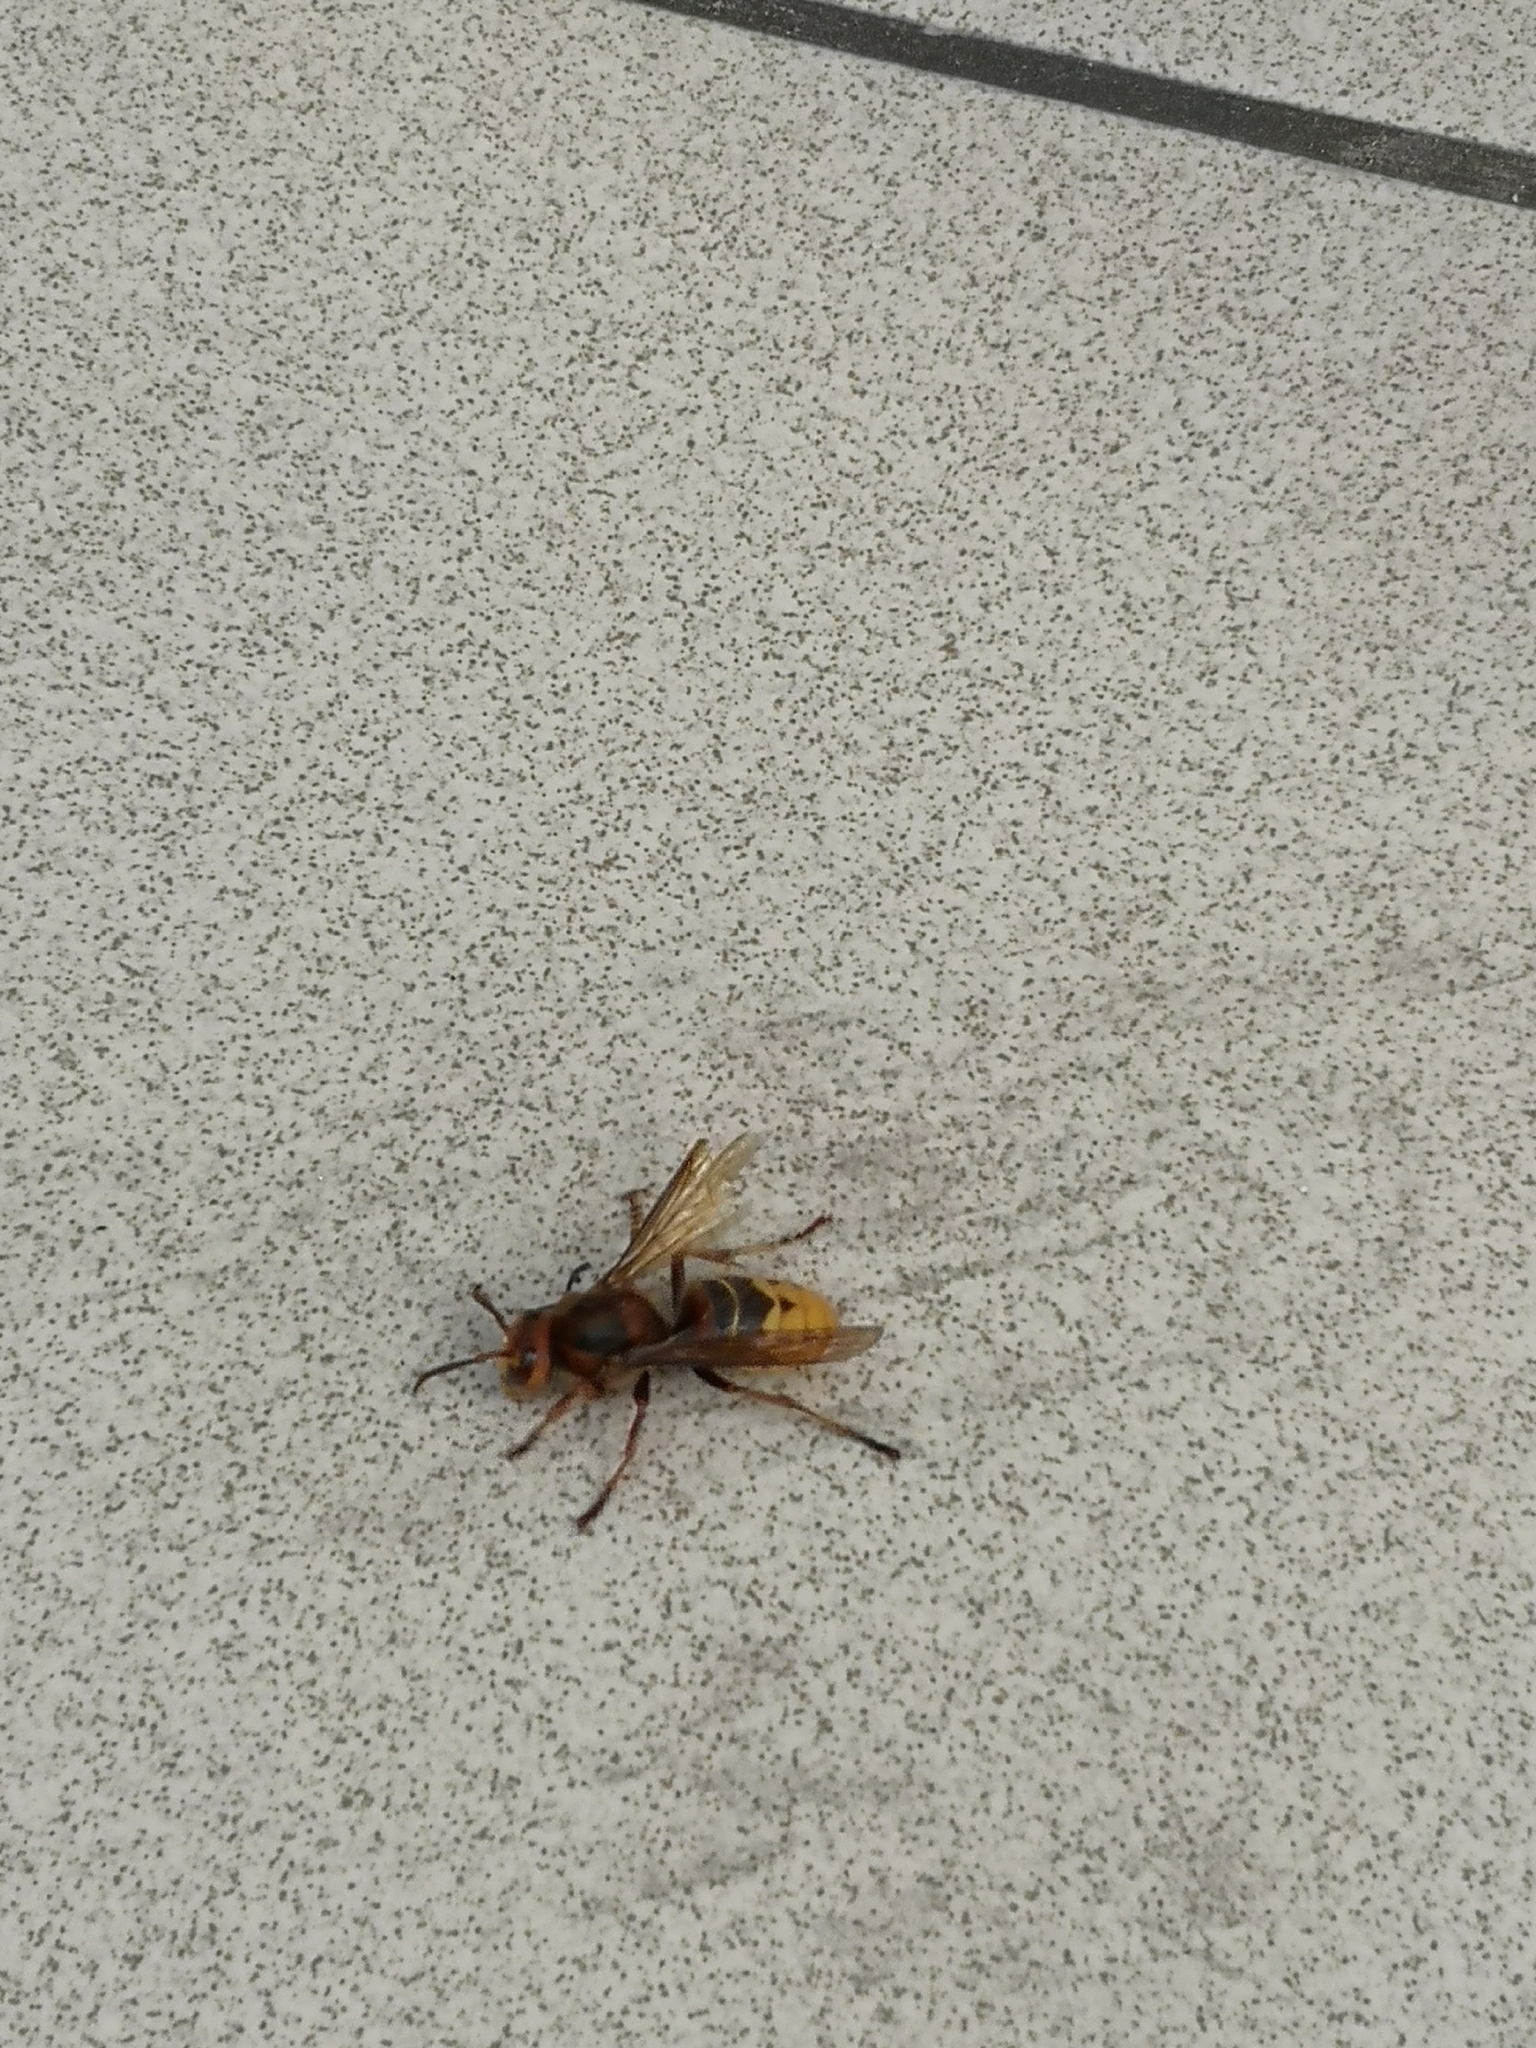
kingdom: Animalia
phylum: Arthropoda
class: Insecta
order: Hymenoptera
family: Vespidae
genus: Vespa
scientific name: Vespa crabro
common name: Hornet
